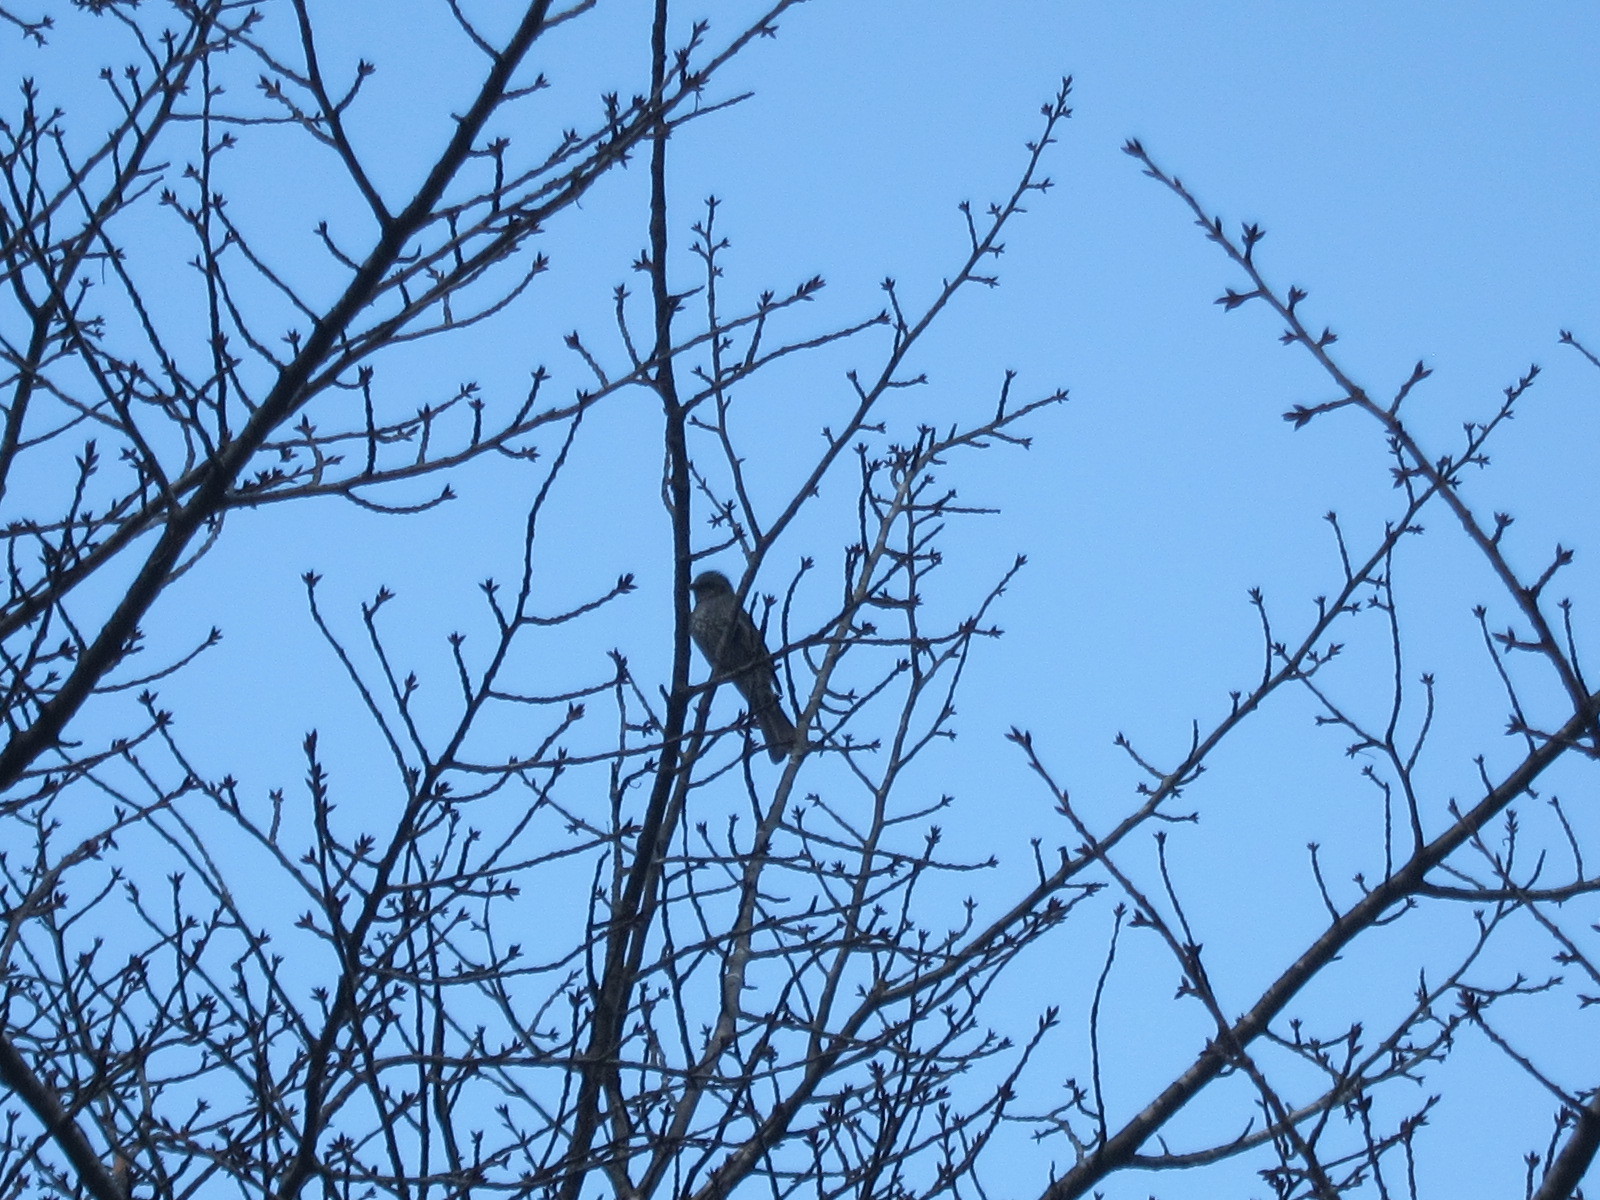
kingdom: Animalia
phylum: Chordata
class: Aves
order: Passeriformes
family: Pycnonotidae
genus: Hypsipetes
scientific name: Hypsipetes amaurotis
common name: Brown-eared bulbul
